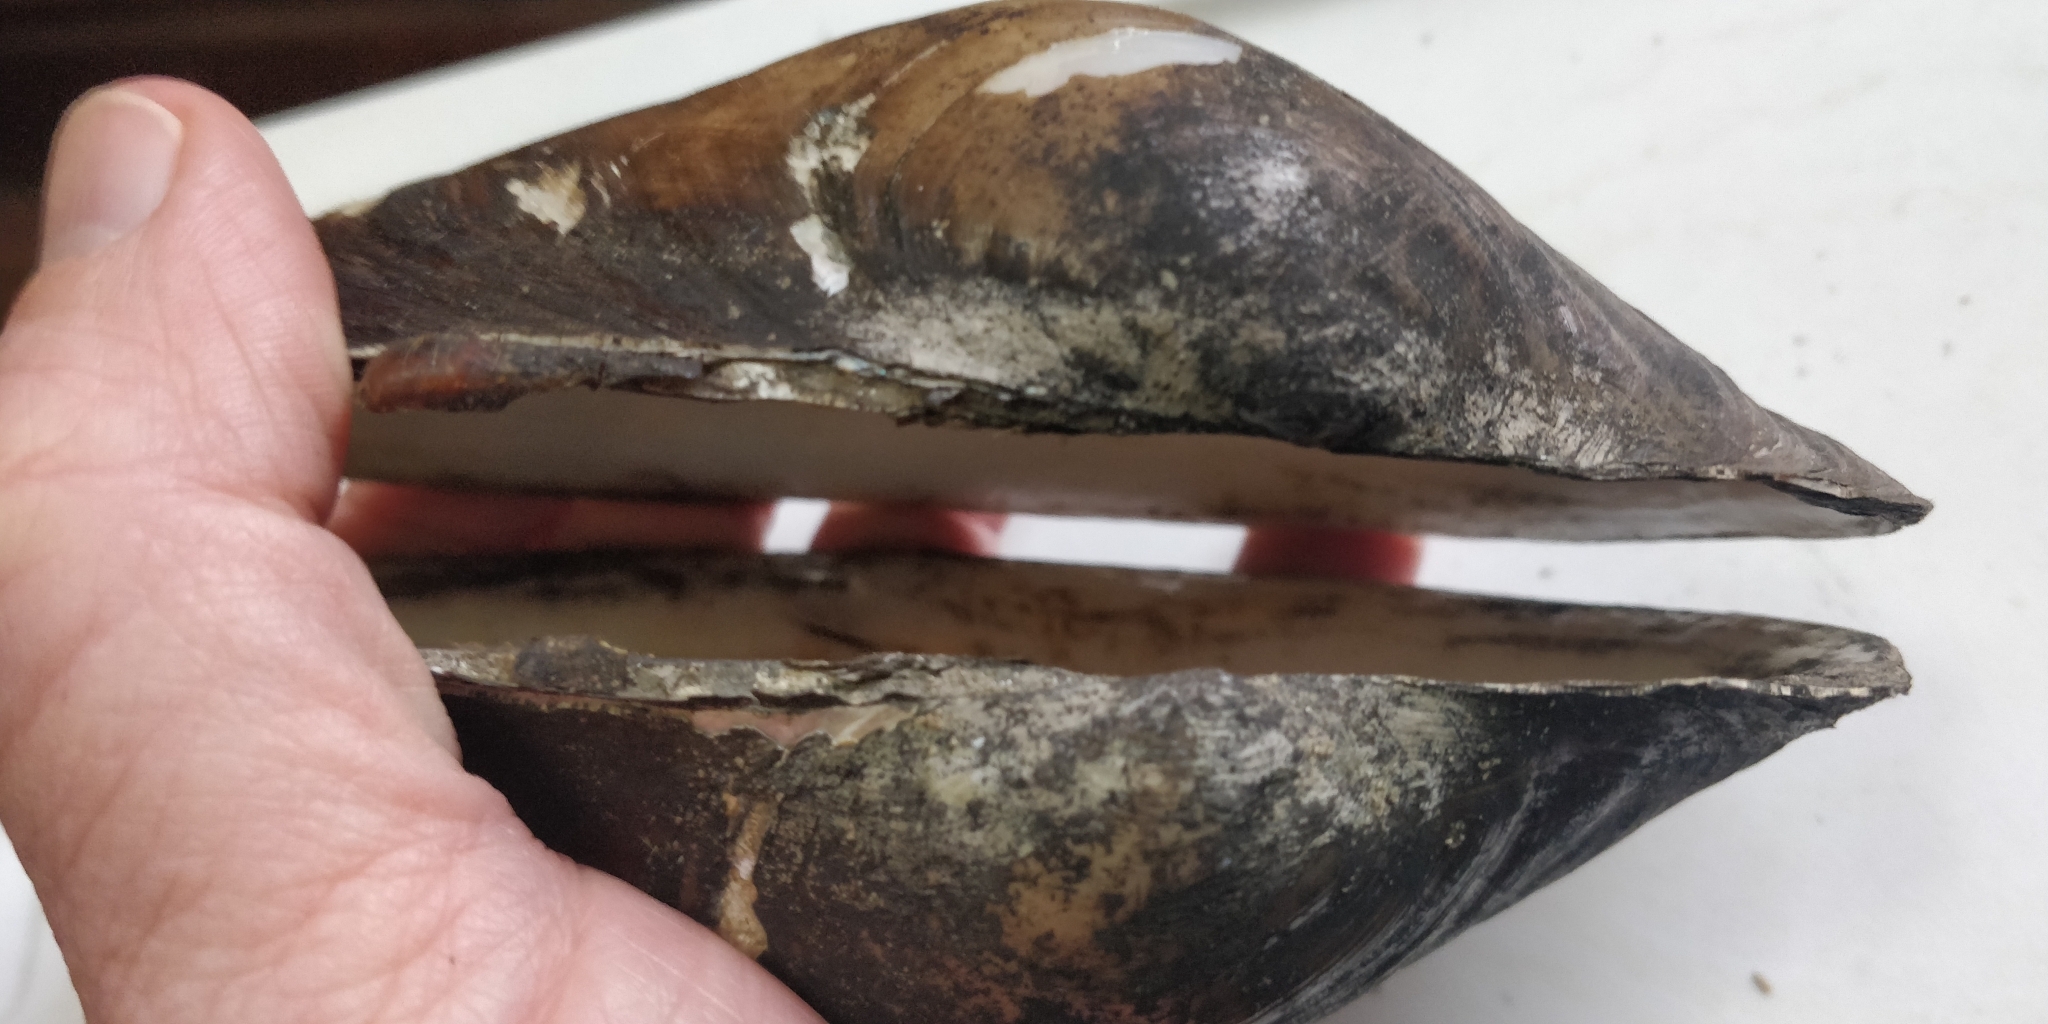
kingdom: Animalia
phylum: Mollusca
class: Bivalvia
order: Unionida
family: Unionidae
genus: Pyganodon
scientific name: Pyganodon grandis
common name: Giant floater
